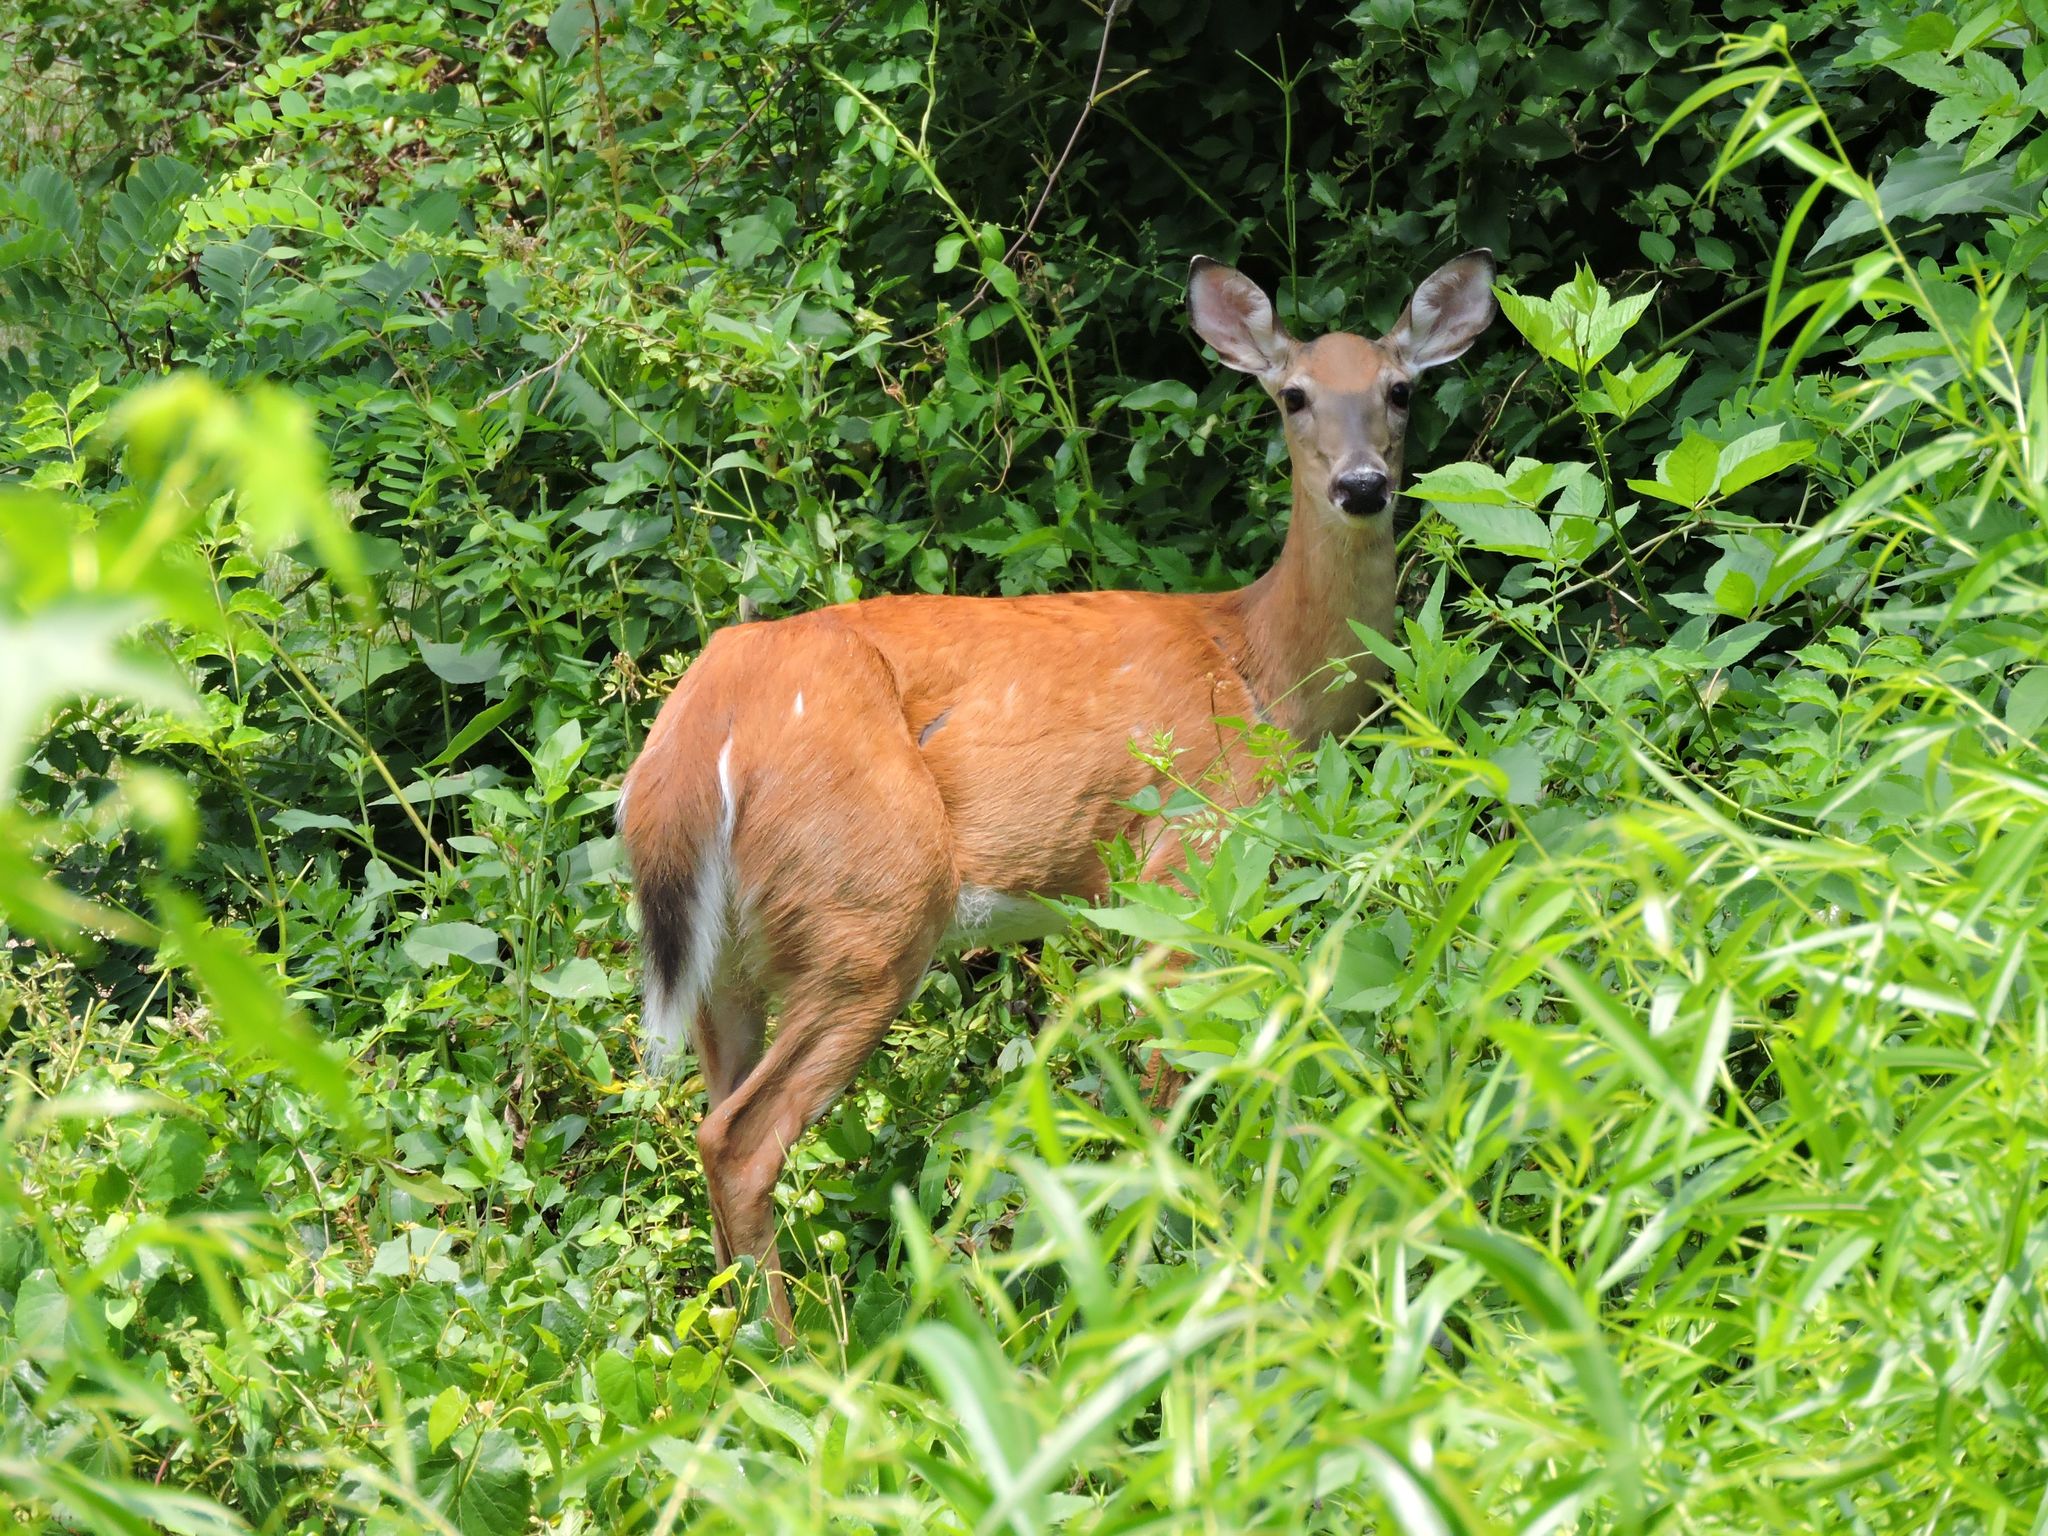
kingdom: Animalia
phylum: Chordata
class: Mammalia
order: Artiodactyla
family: Cervidae
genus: Odocoileus
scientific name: Odocoileus virginianus
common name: White-tailed deer
